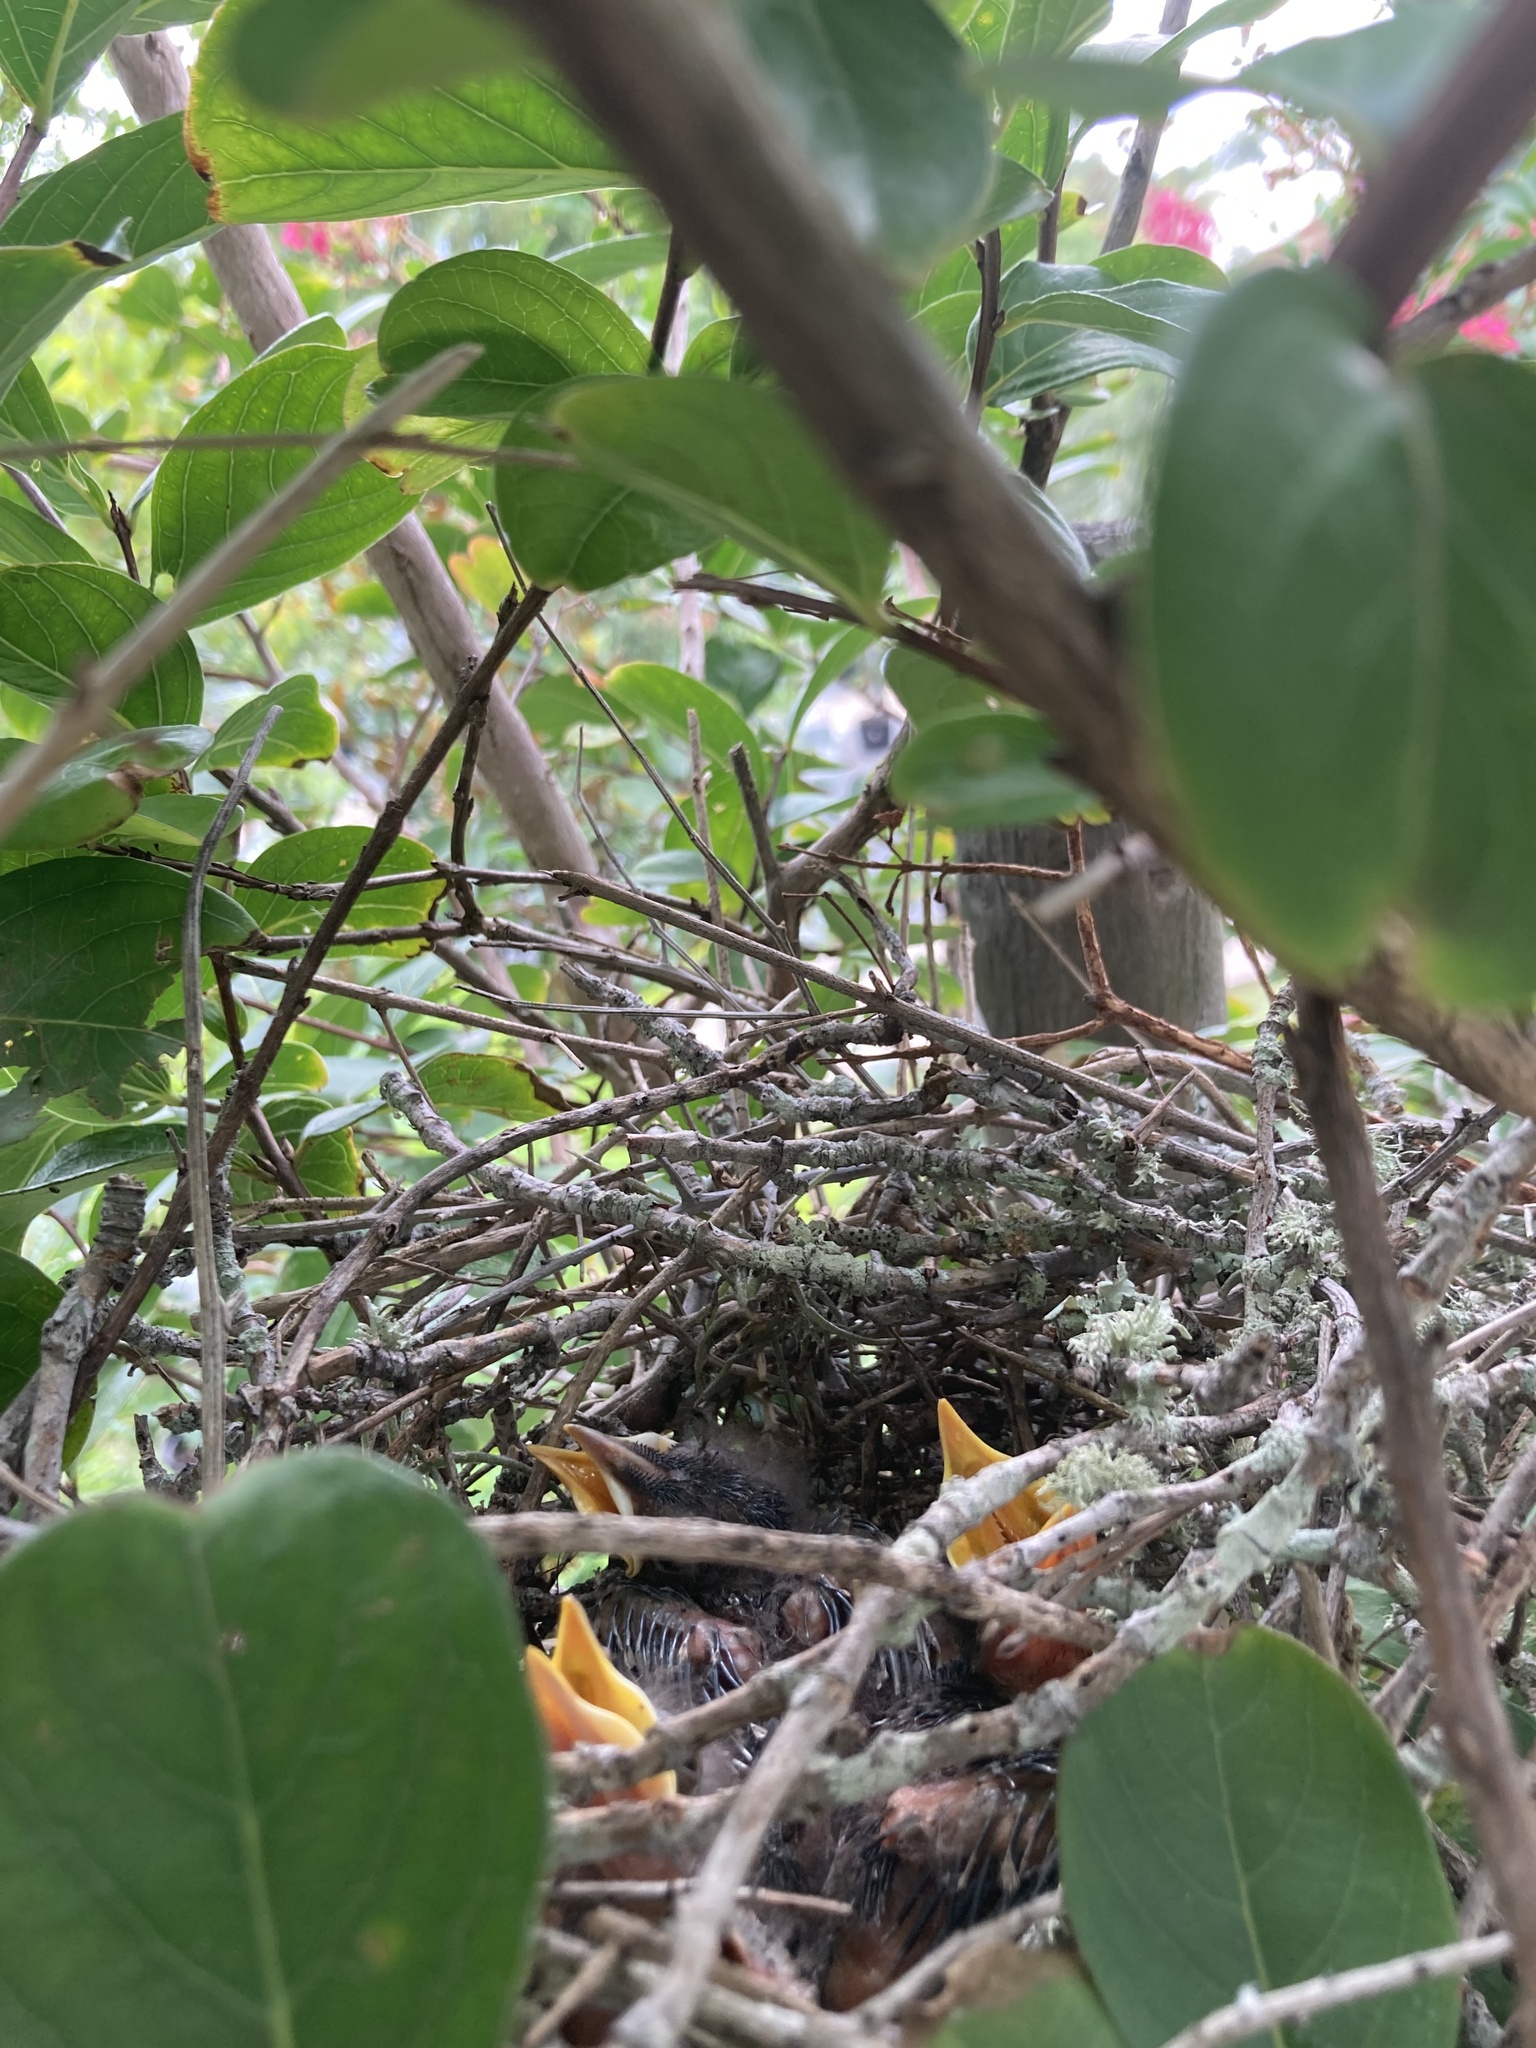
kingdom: Animalia
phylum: Chordata
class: Aves
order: Passeriformes
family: Mimidae
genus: Mimus
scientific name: Mimus polyglottos
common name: Northern mockingbird
